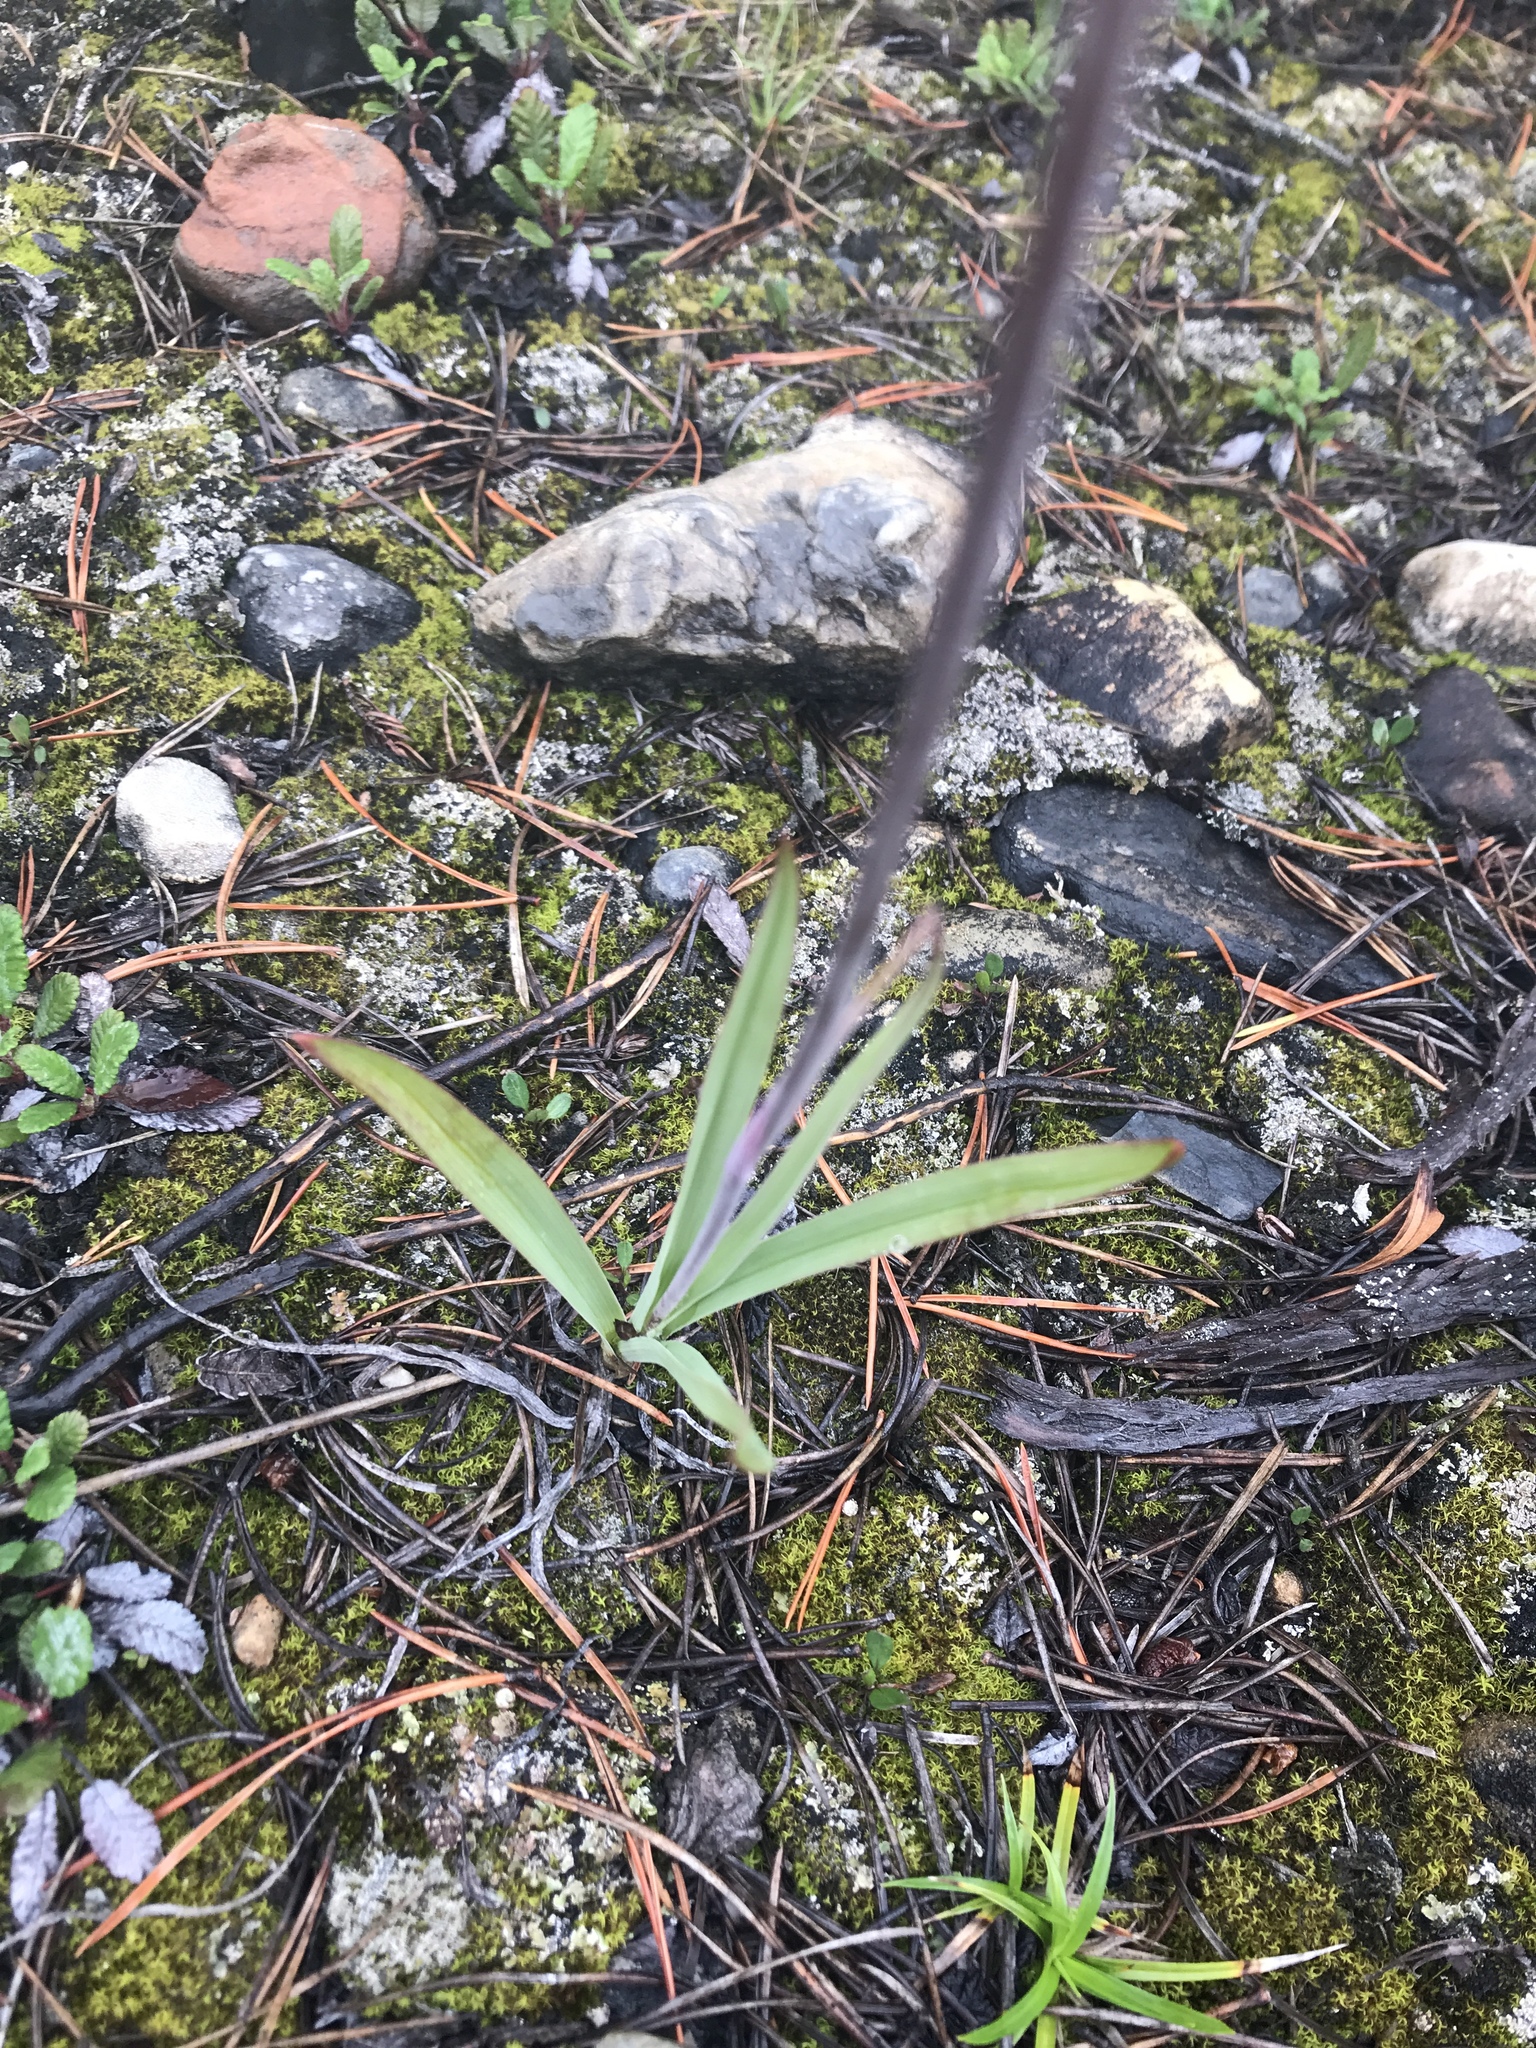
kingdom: Plantae
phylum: Tracheophyta
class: Liliopsida
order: Liliales
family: Melanthiaceae
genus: Anticlea
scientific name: Anticlea elegans
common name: Mountain death camas
